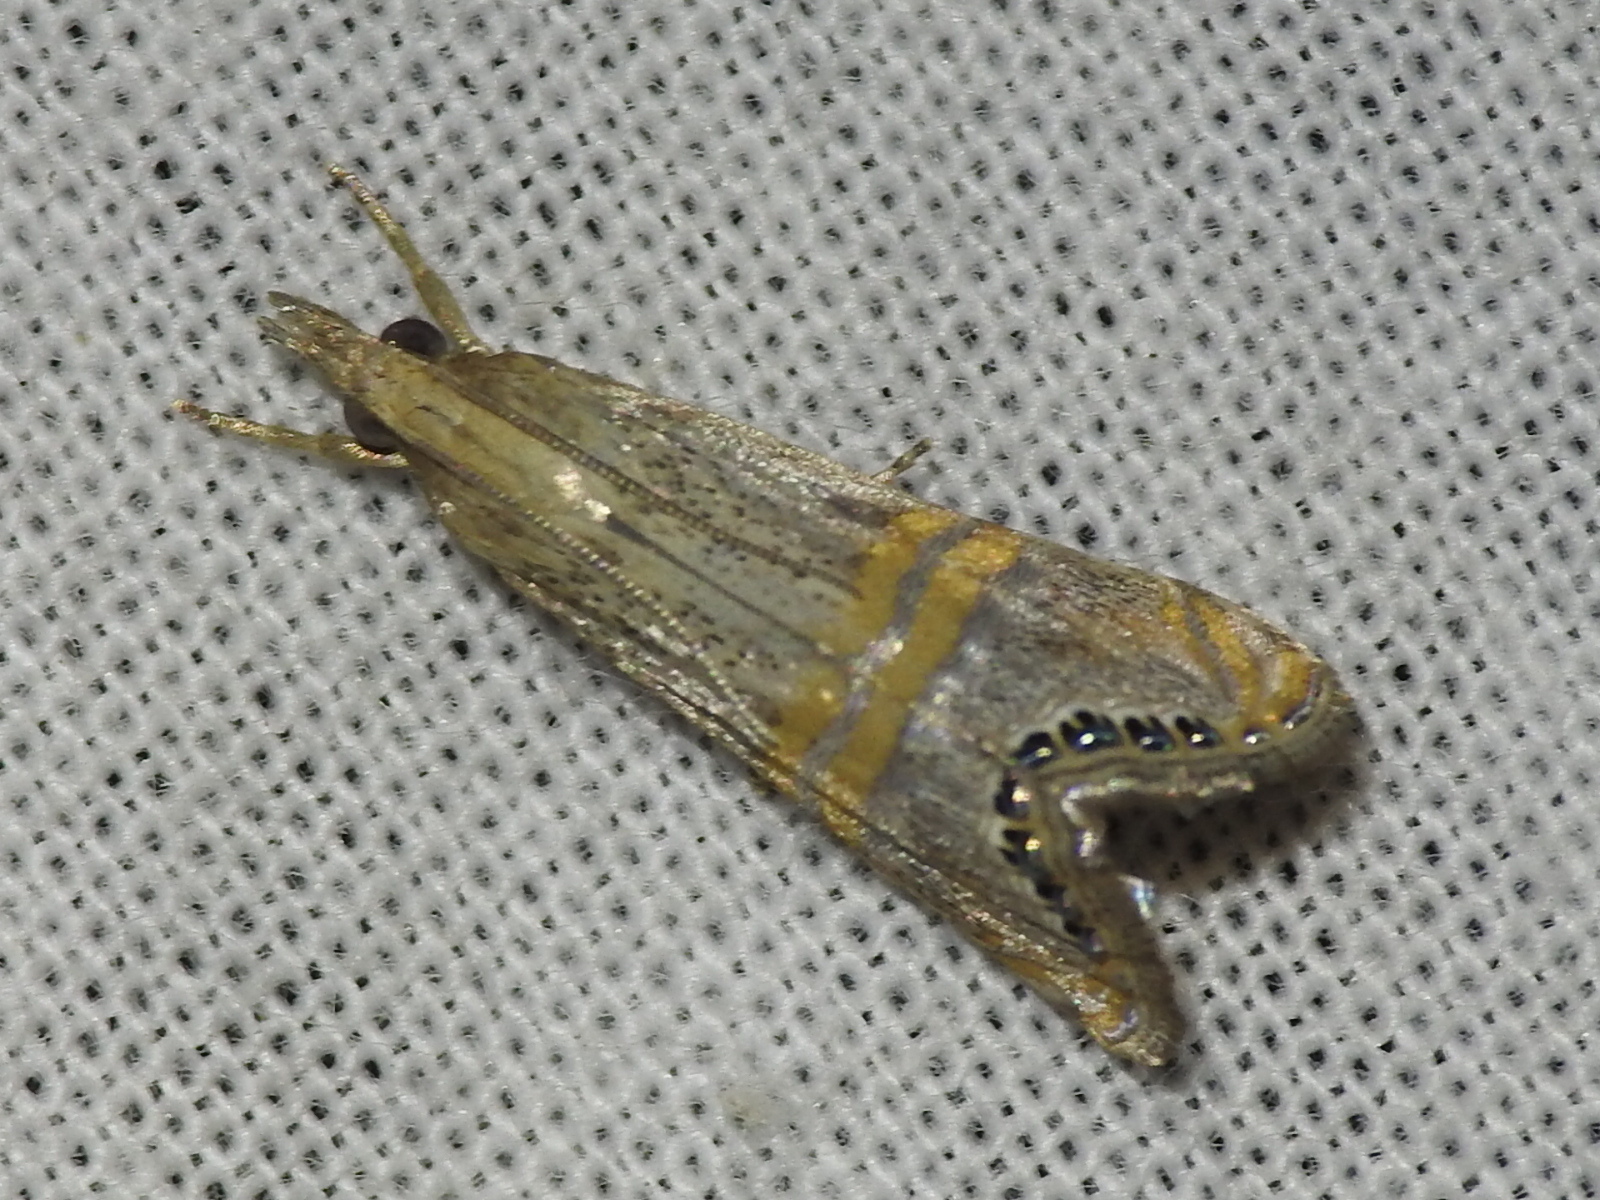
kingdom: Animalia
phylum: Arthropoda
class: Insecta
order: Lepidoptera
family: Crambidae
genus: Euchromius
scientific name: Euchromius ocellea
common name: Necklace veneer moth
